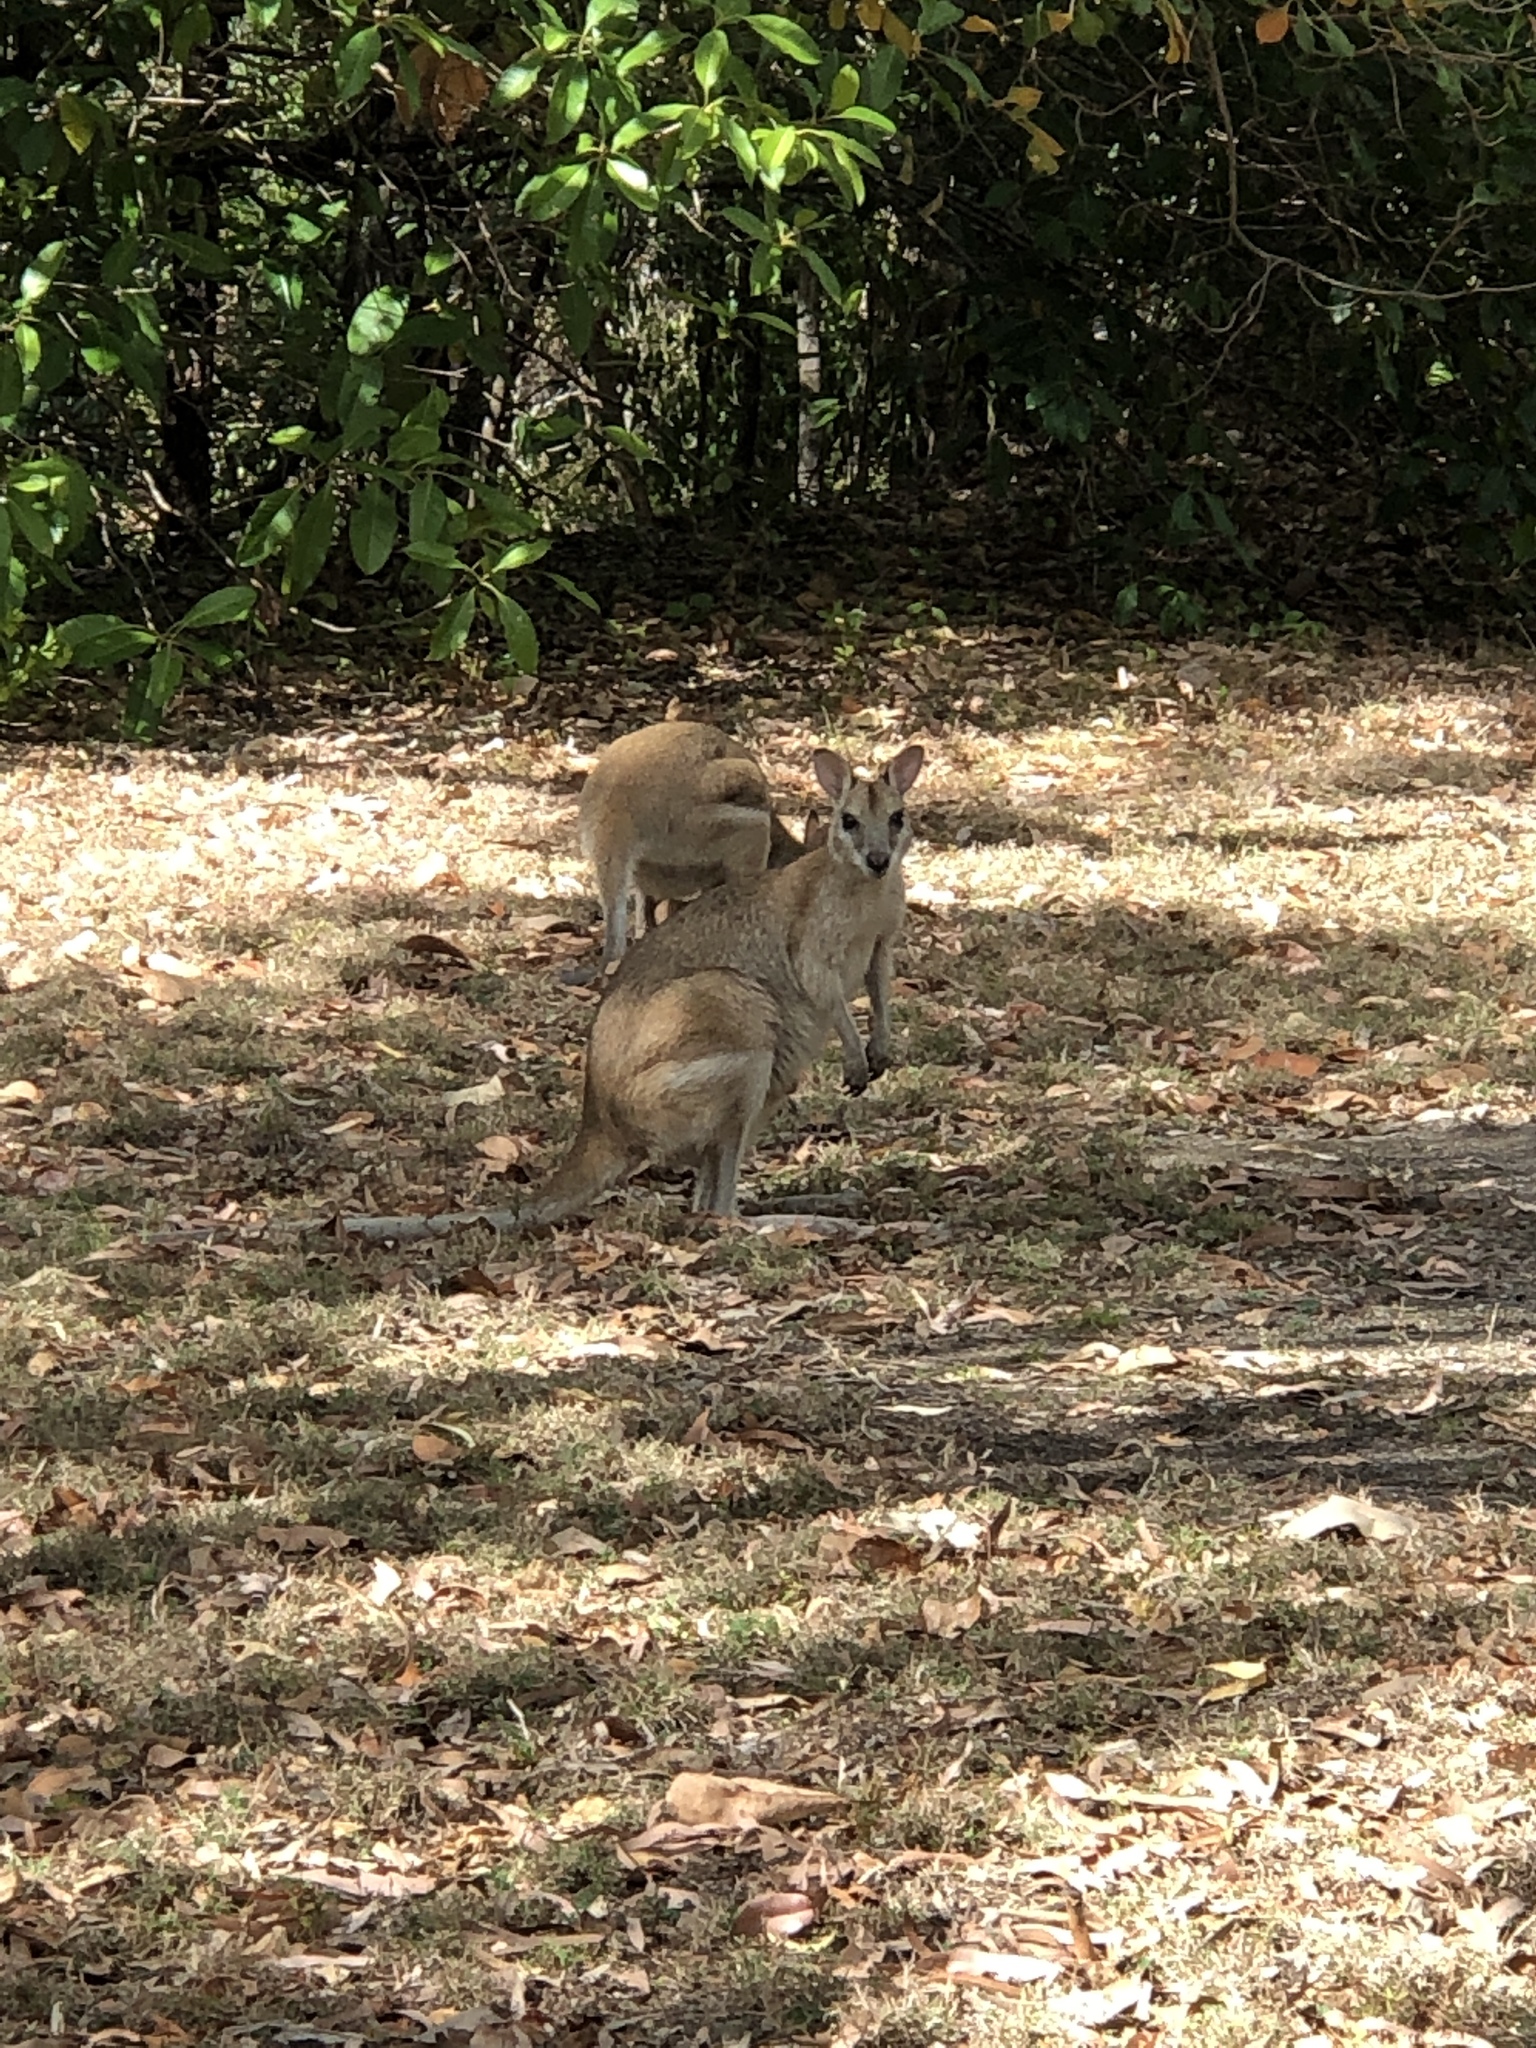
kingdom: Animalia
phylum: Chordata
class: Mammalia
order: Diprotodontia
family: Macropodidae
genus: Macropus
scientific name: Macropus agilis
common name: Agile wallaby
